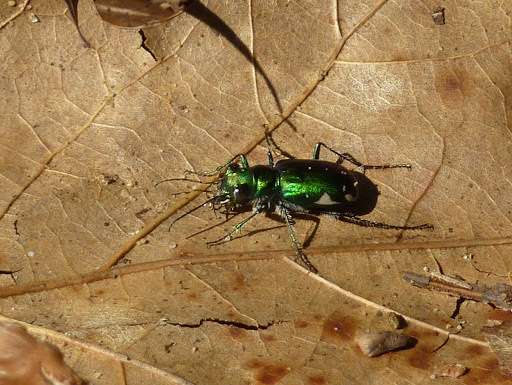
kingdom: Animalia
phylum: Arthropoda
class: Insecta
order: Coleoptera
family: Carabidae
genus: Cicindela
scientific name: Cicindela scutellaris
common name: Festive tiger beetle
